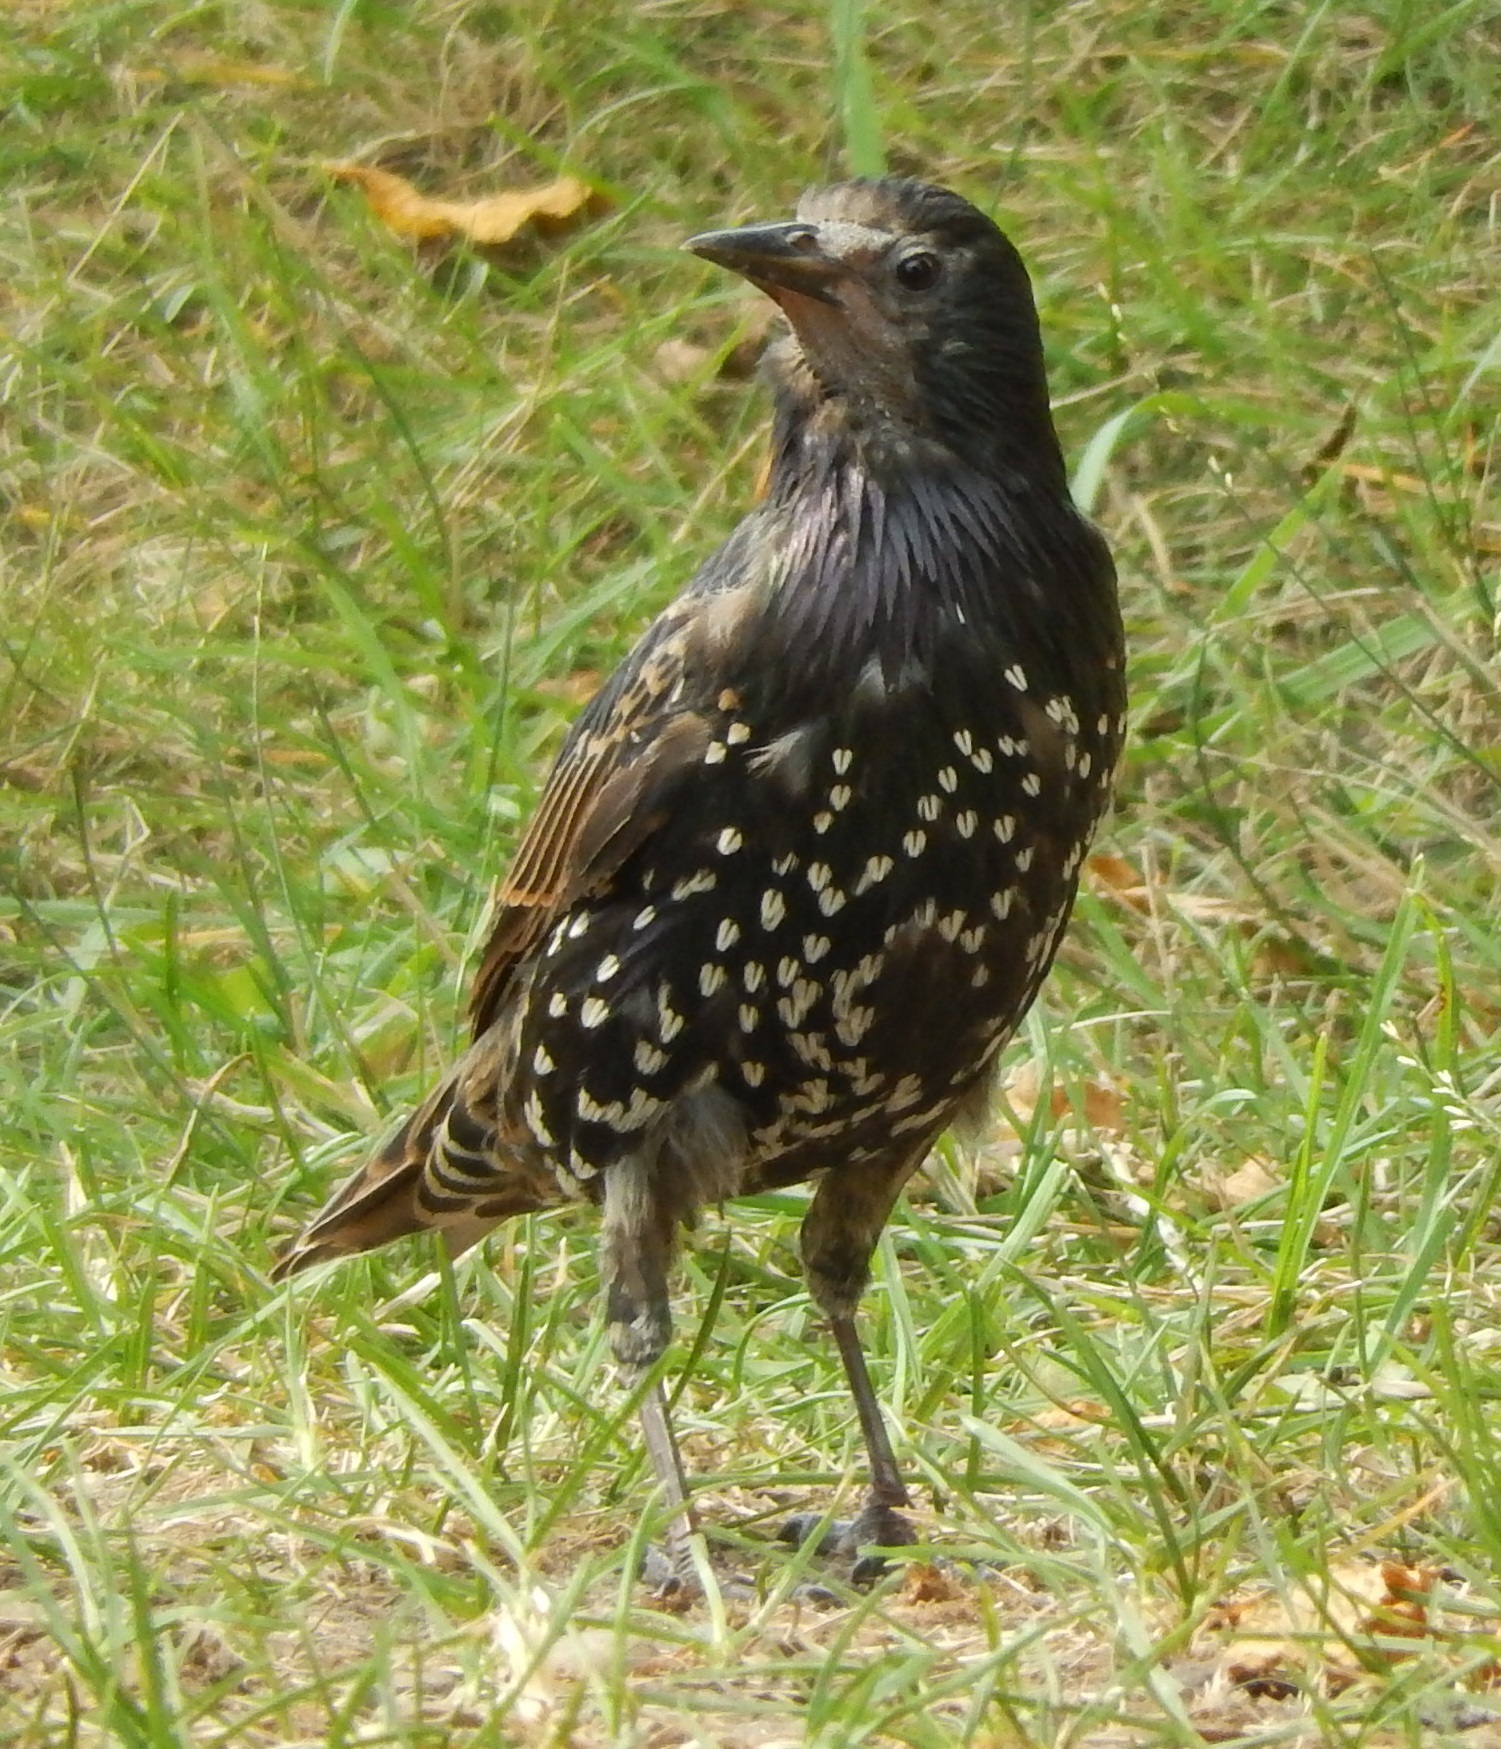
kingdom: Animalia
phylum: Chordata
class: Aves
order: Passeriformes
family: Sturnidae
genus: Sturnus
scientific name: Sturnus vulgaris
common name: Common starling
